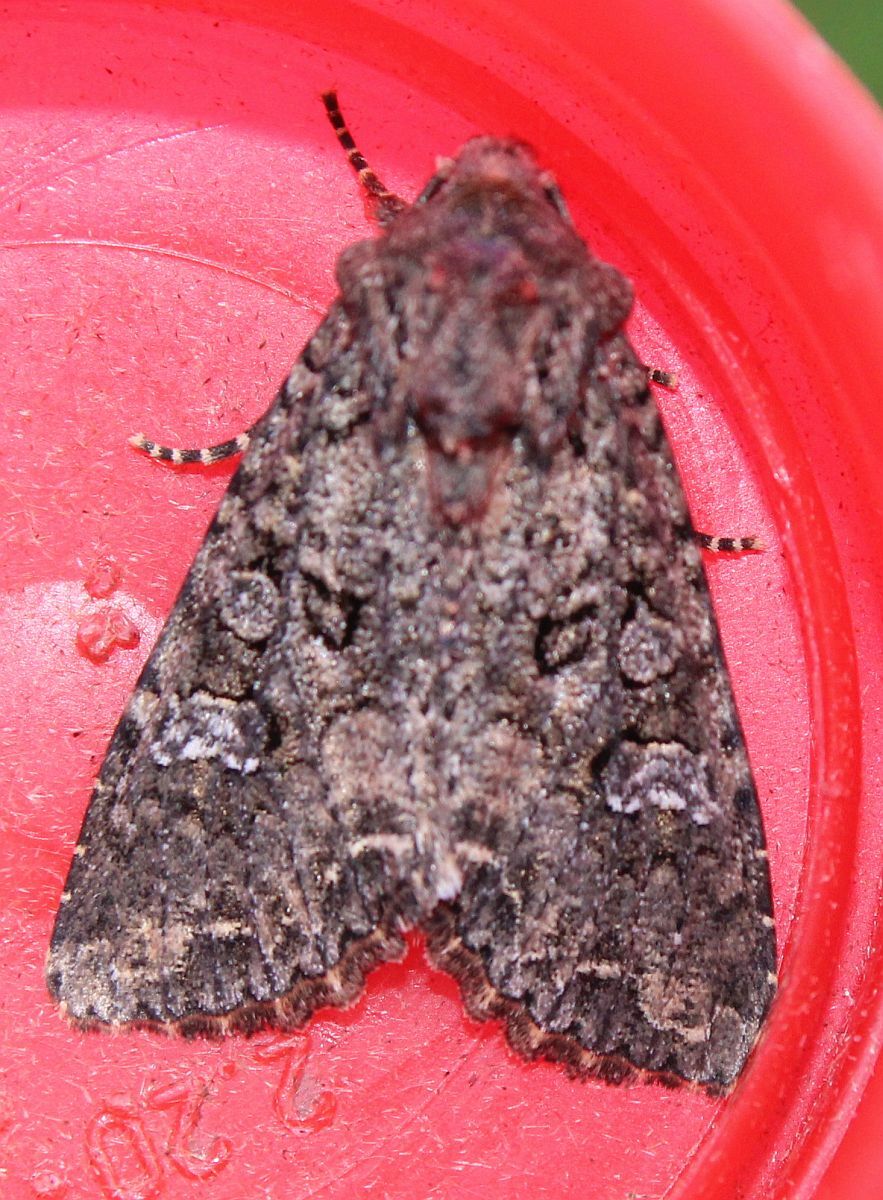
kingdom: Animalia
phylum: Arthropoda
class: Insecta
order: Lepidoptera
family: Noctuidae
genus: Mamestra
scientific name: Mamestra brassicae
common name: Cabbage moth
